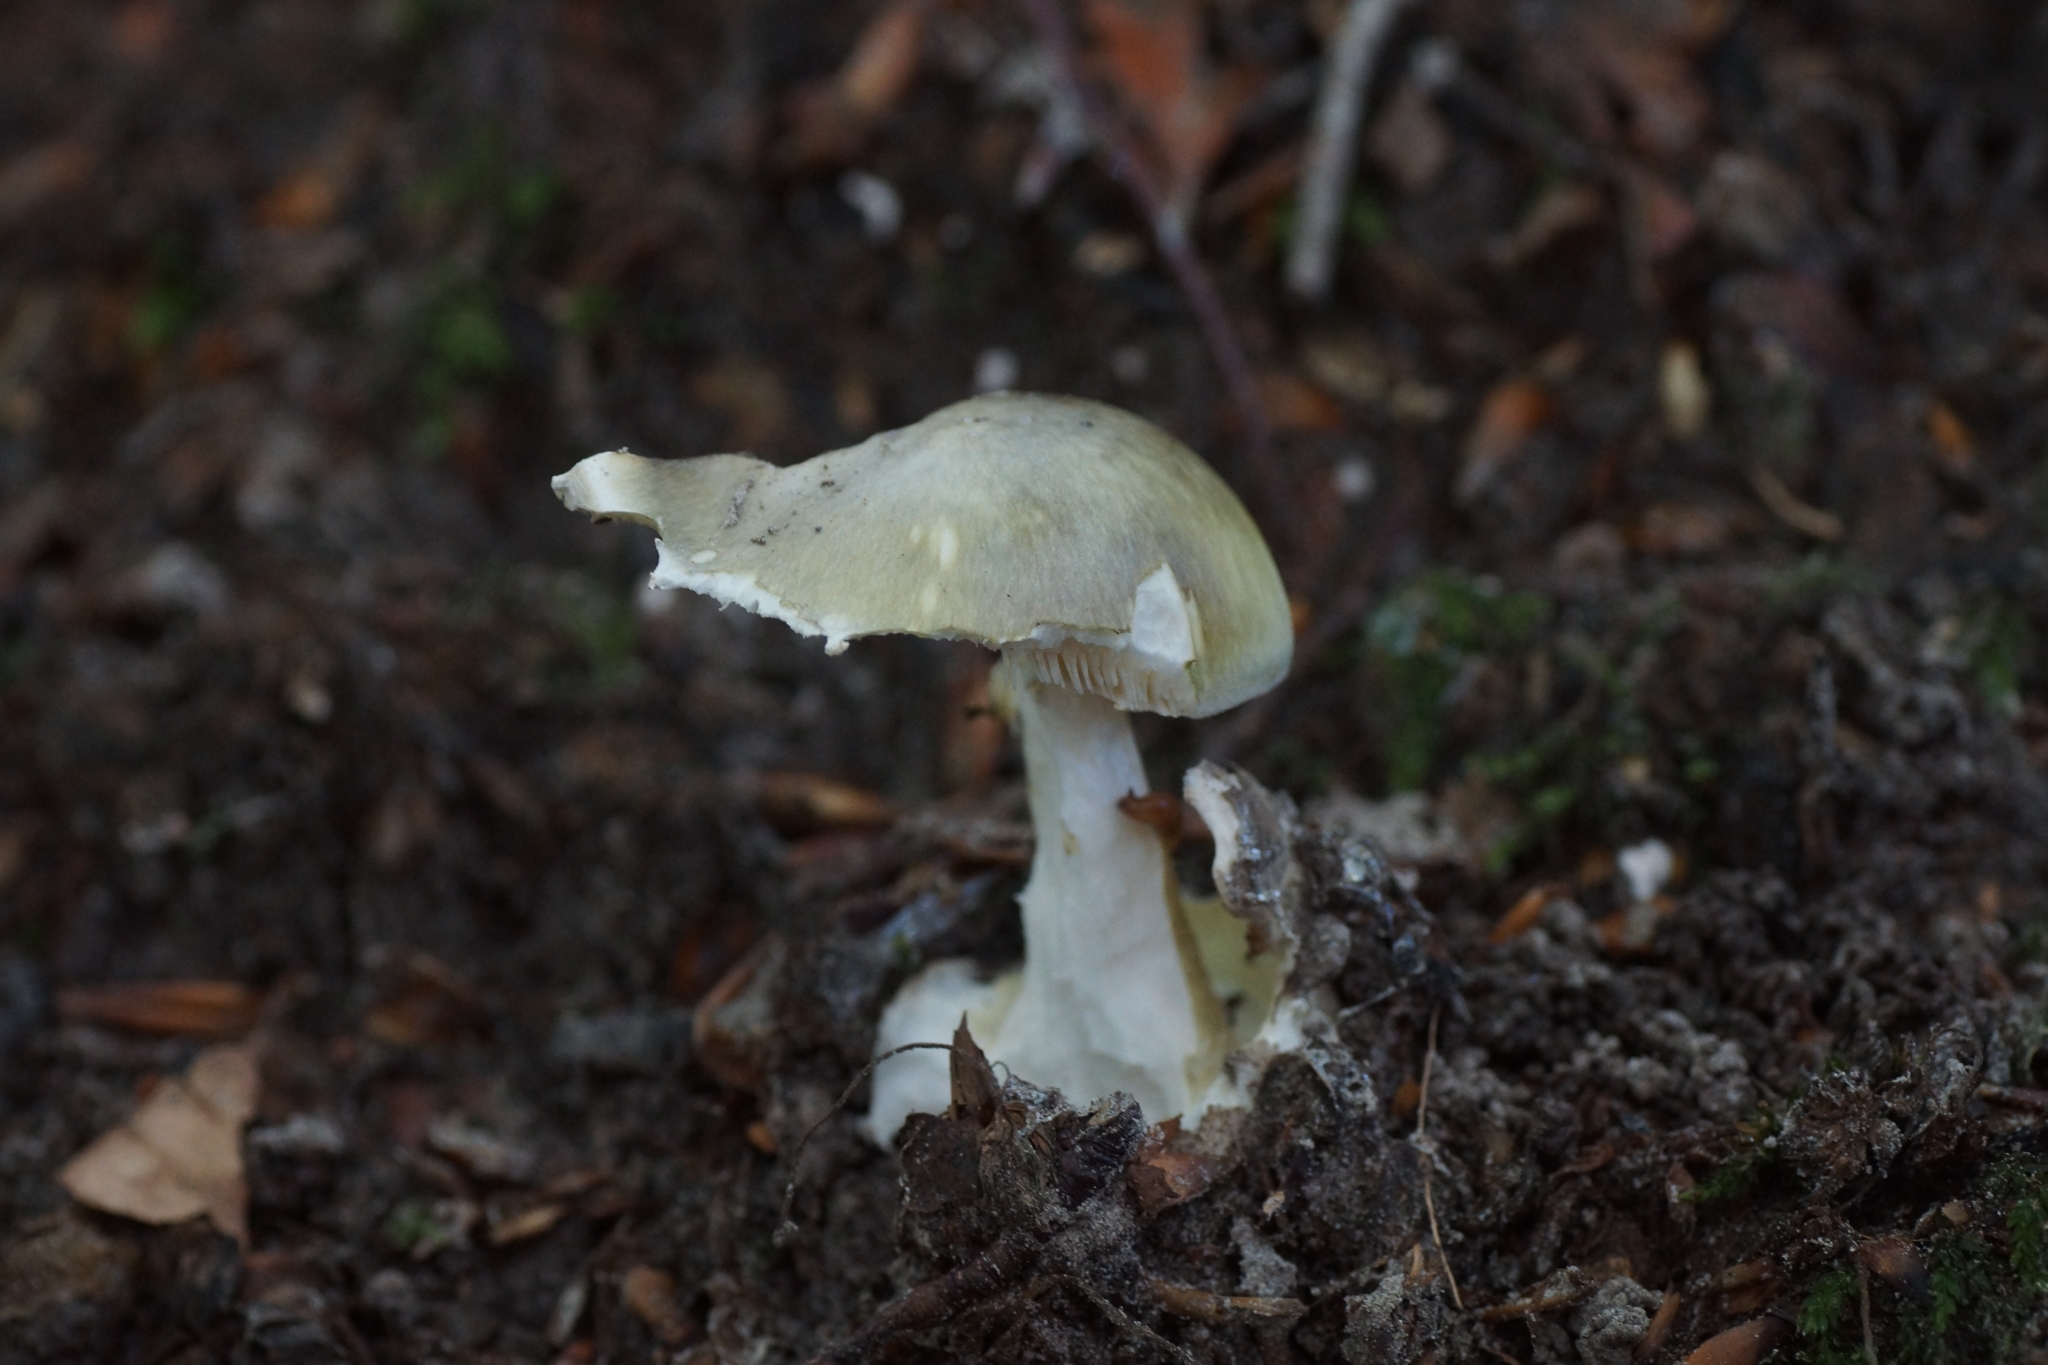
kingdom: Fungi
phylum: Basidiomycota
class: Agaricomycetes
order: Agaricales
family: Amanitaceae
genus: Amanita
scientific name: Amanita phalloides
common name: Death cap
